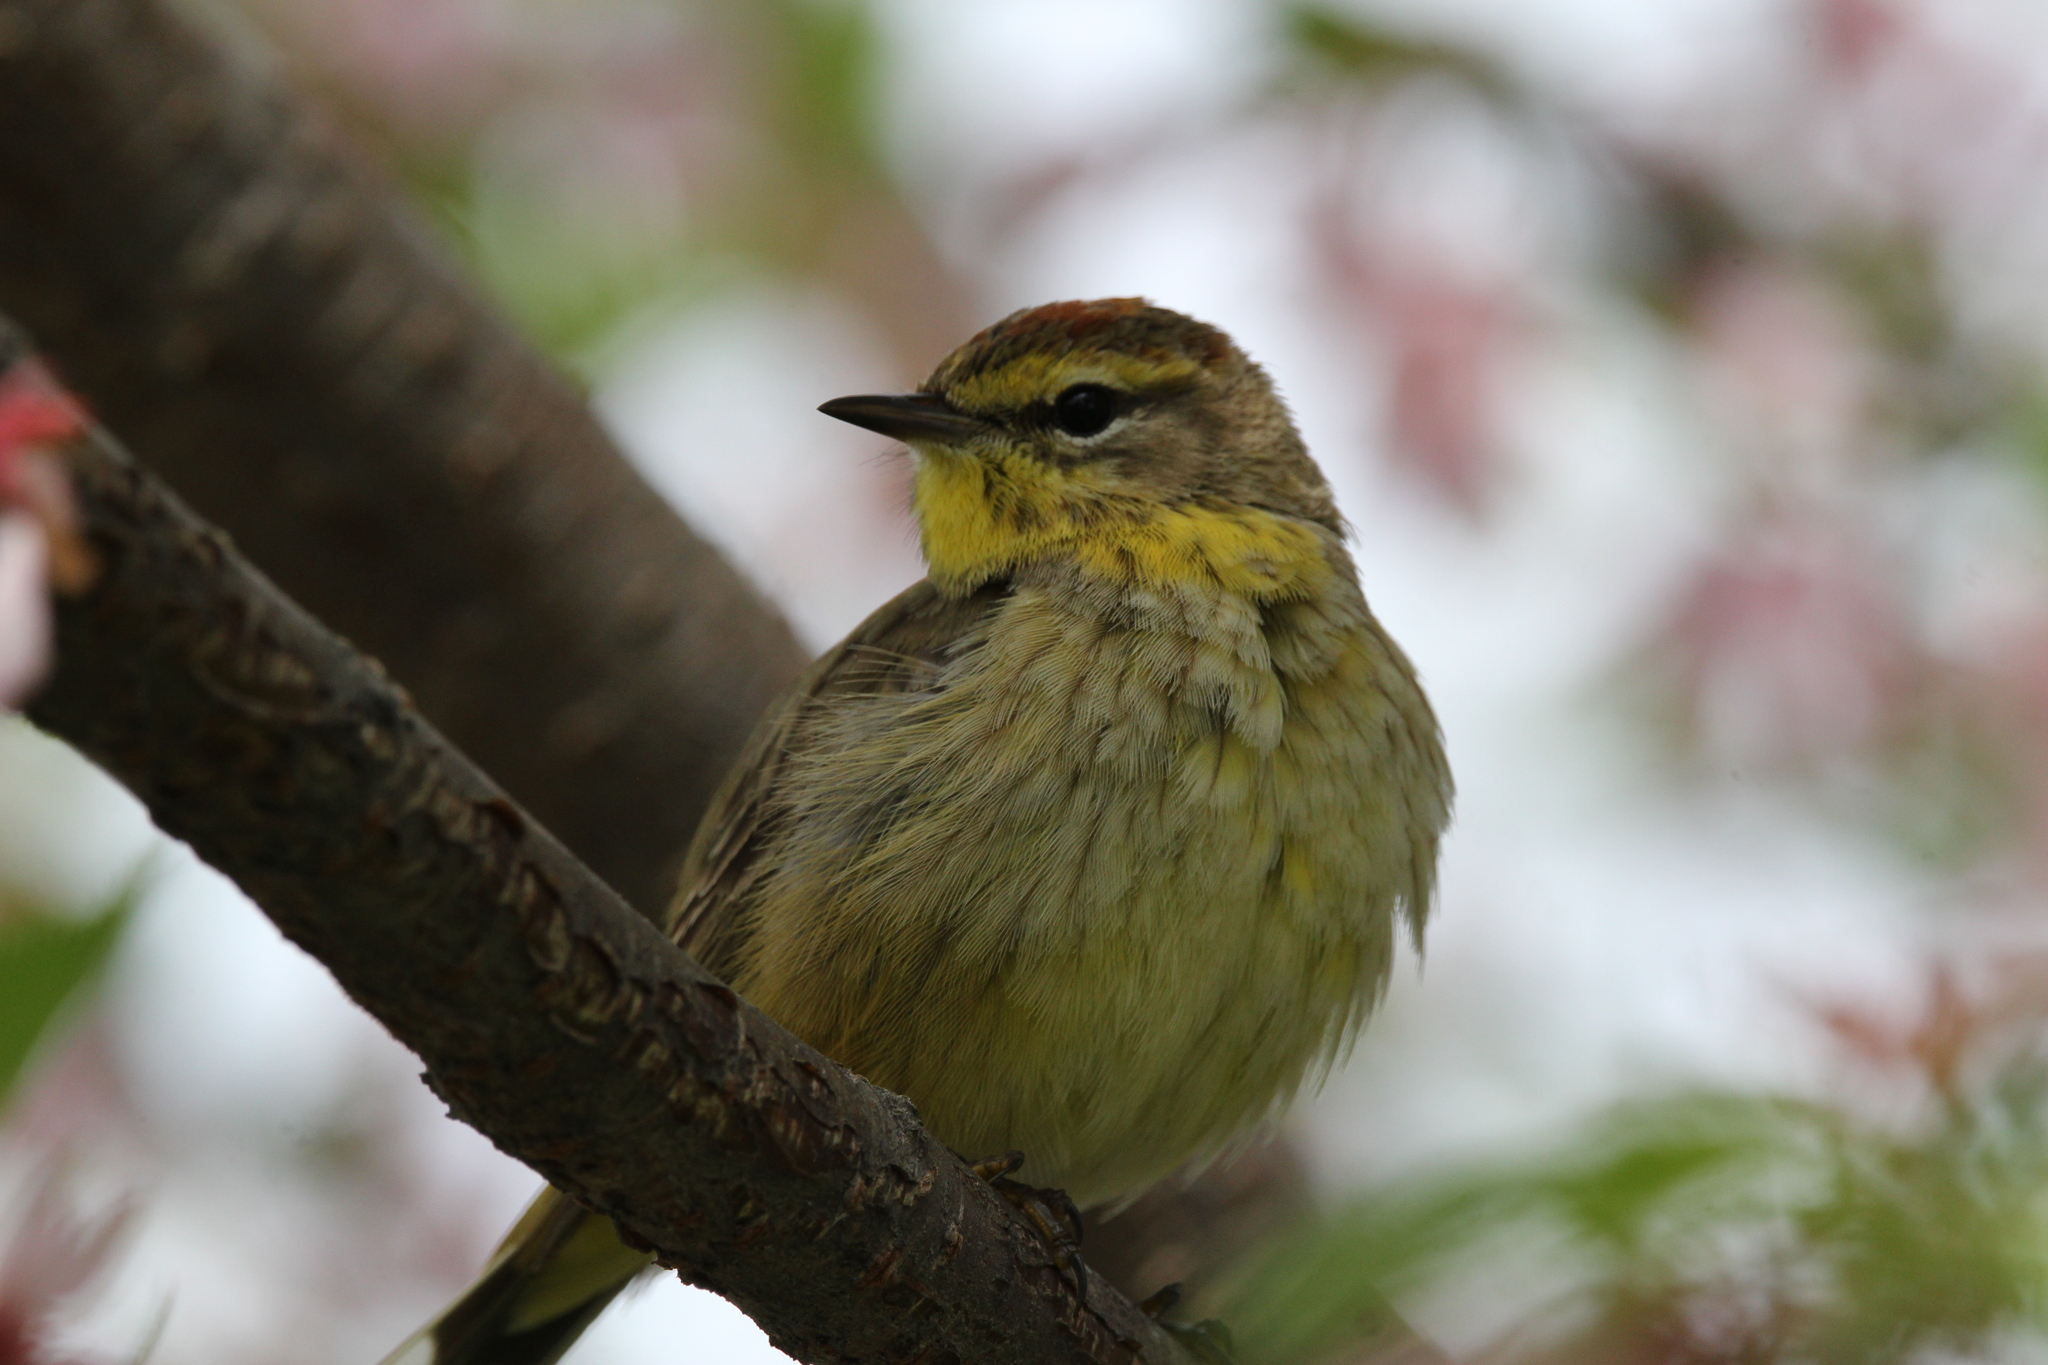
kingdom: Animalia
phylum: Chordata
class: Aves
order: Passeriformes
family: Parulidae
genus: Setophaga
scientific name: Setophaga palmarum
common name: Palm warbler
